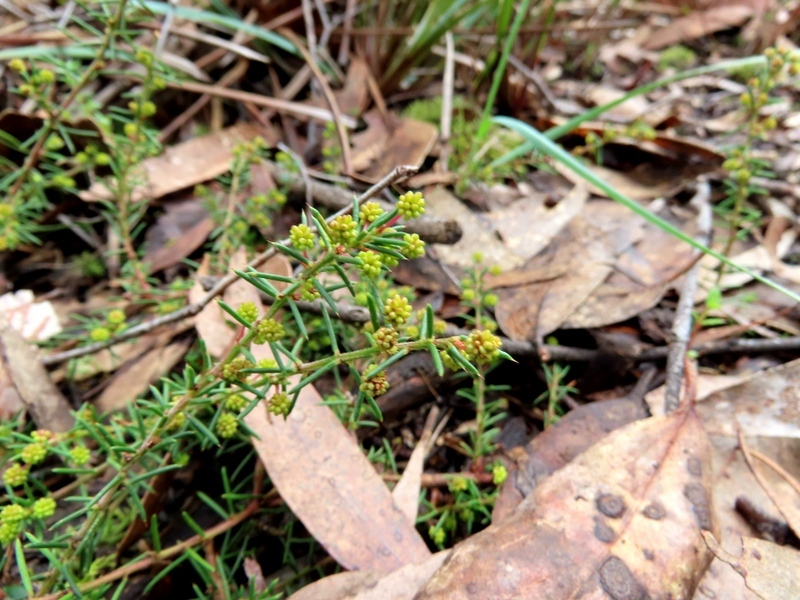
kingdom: Plantae
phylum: Tracheophyta
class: Magnoliopsida
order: Fabales
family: Fabaceae
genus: Acacia
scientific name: Acacia aculeatissima
